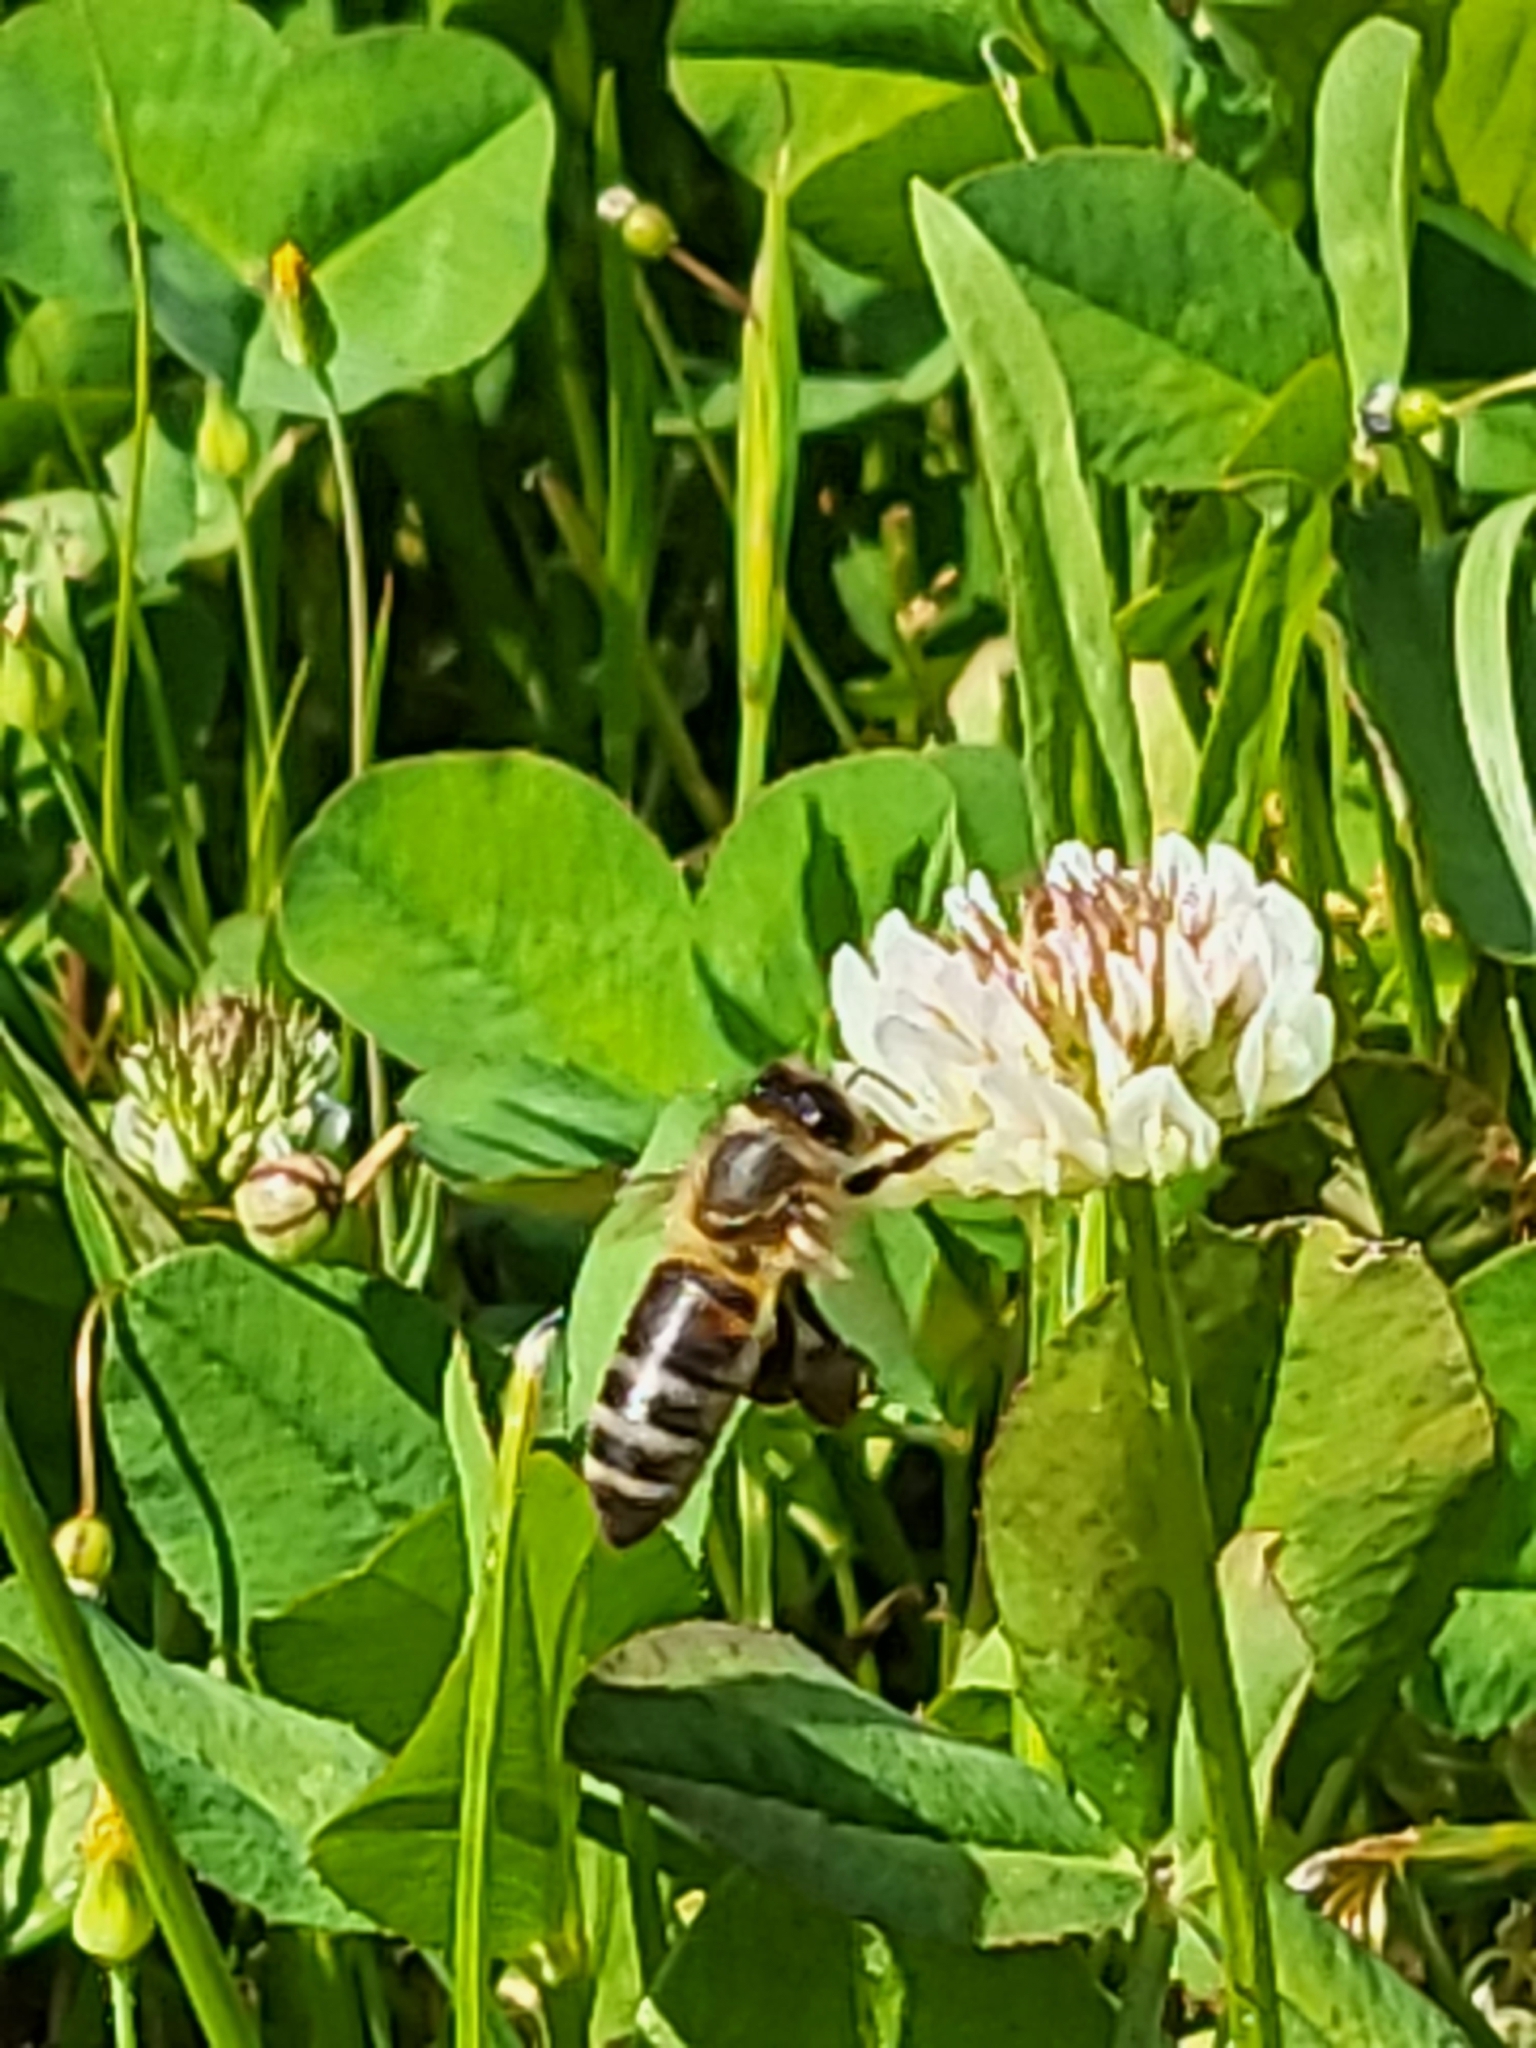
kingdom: Animalia
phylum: Arthropoda
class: Insecta
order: Hymenoptera
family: Apidae
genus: Apis
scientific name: Apis mellifera
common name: Honey bee
